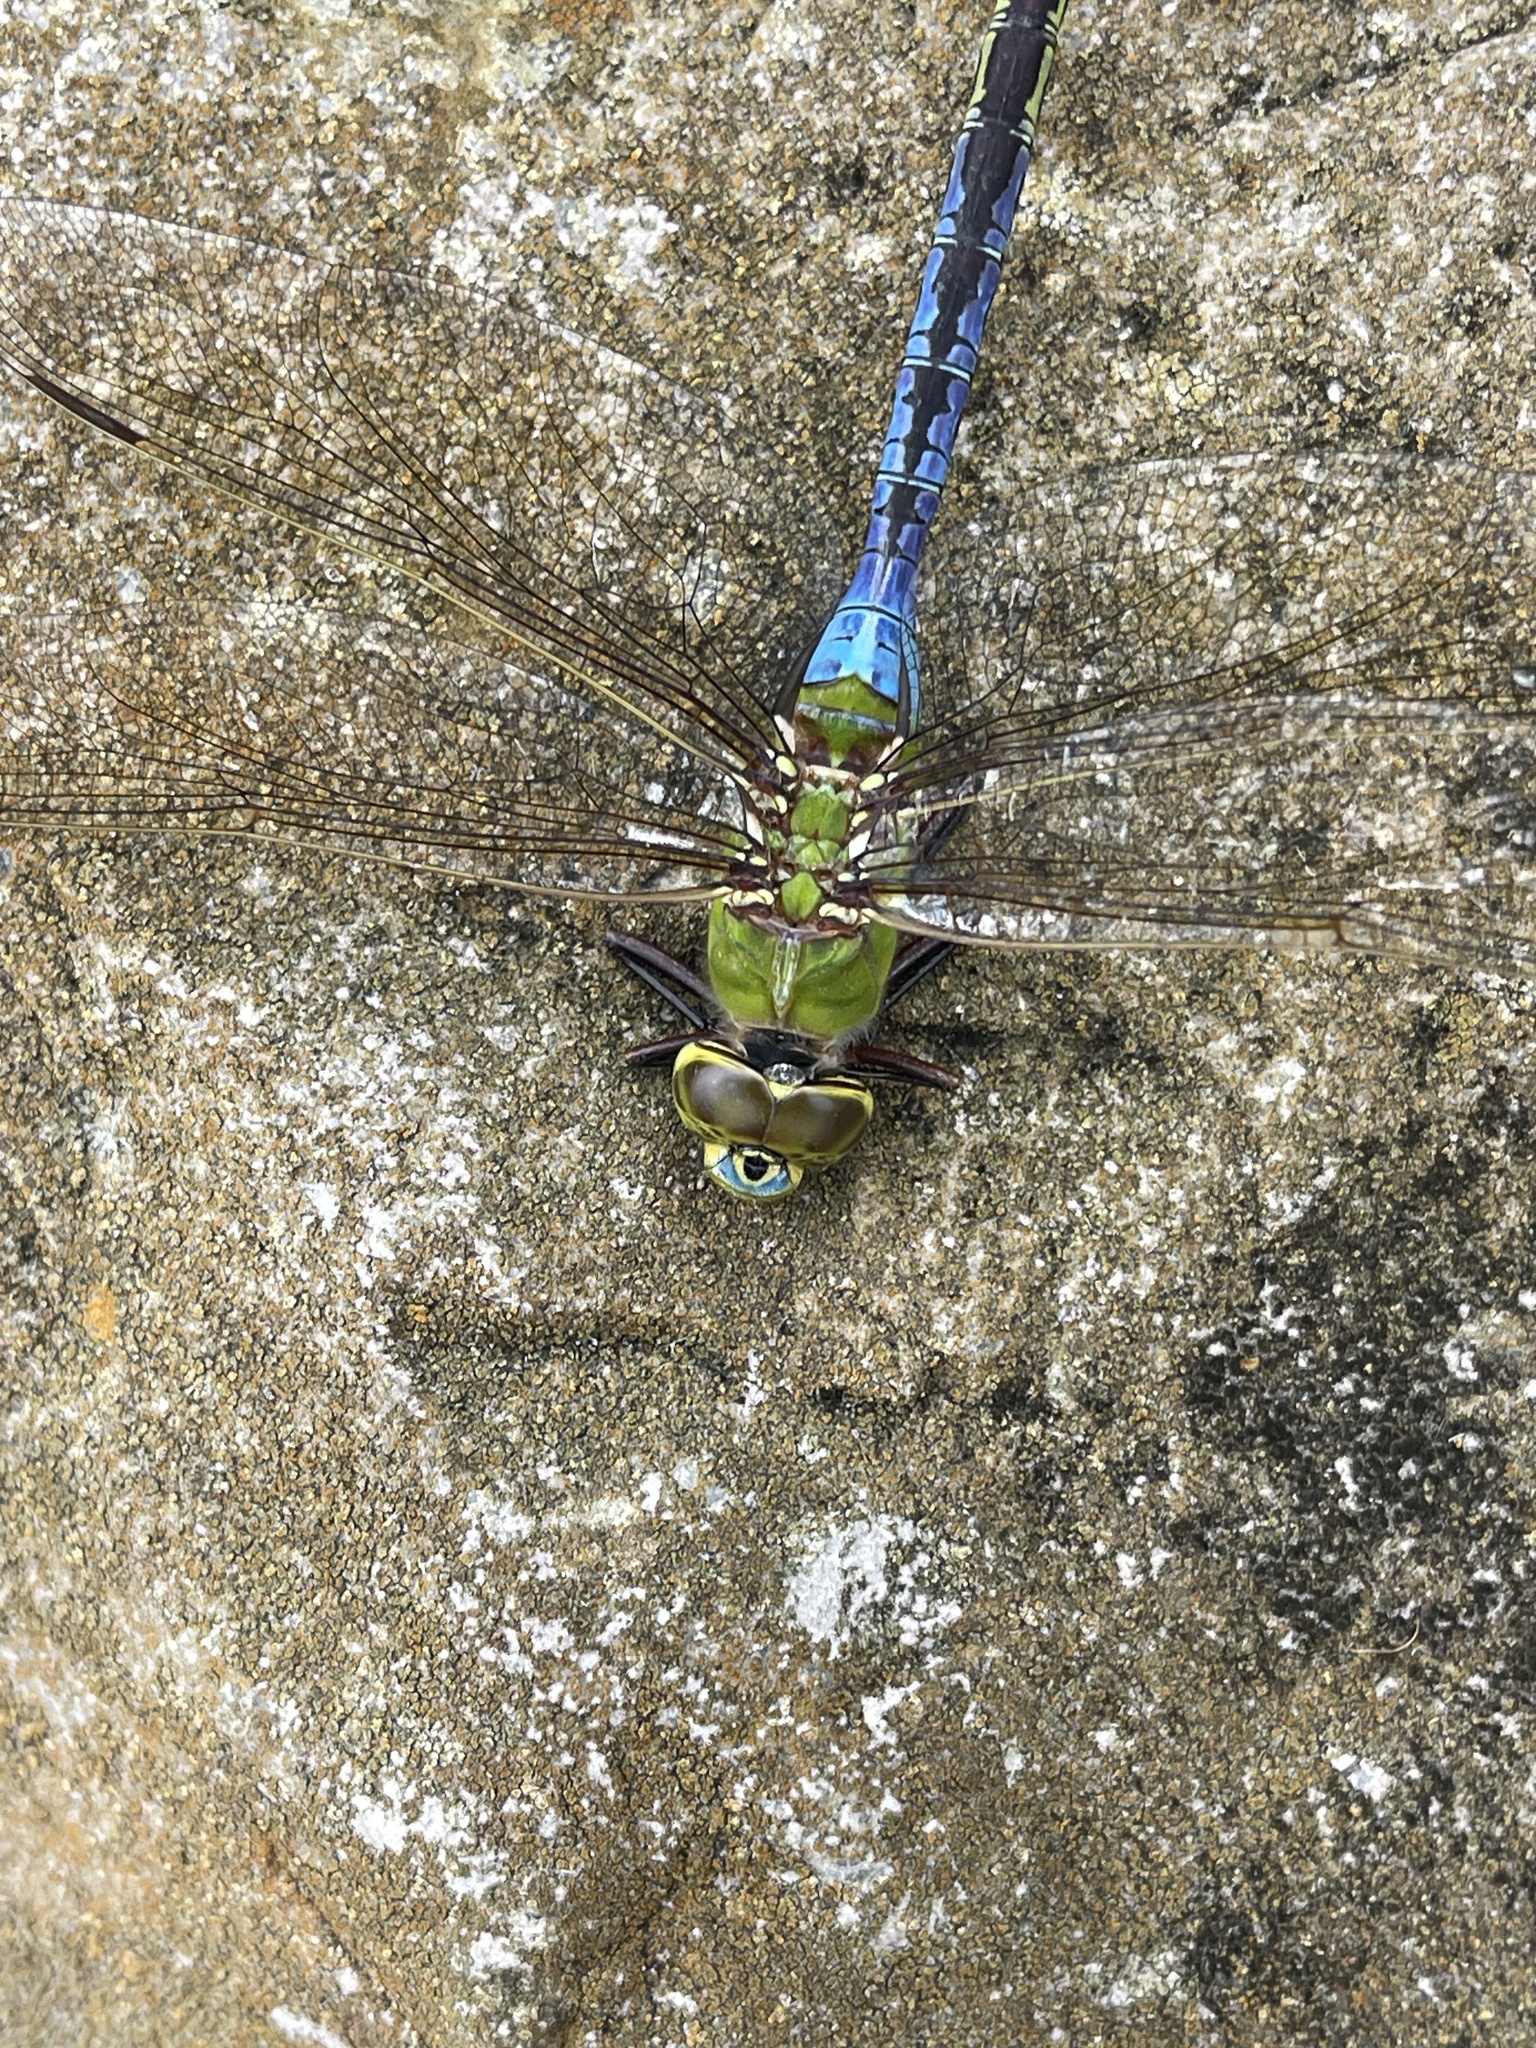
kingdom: Animalia
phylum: Arthropoda
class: Insecta
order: Odonata
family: Aeshnidae
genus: Anax
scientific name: Anax junius
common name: Common green darner
